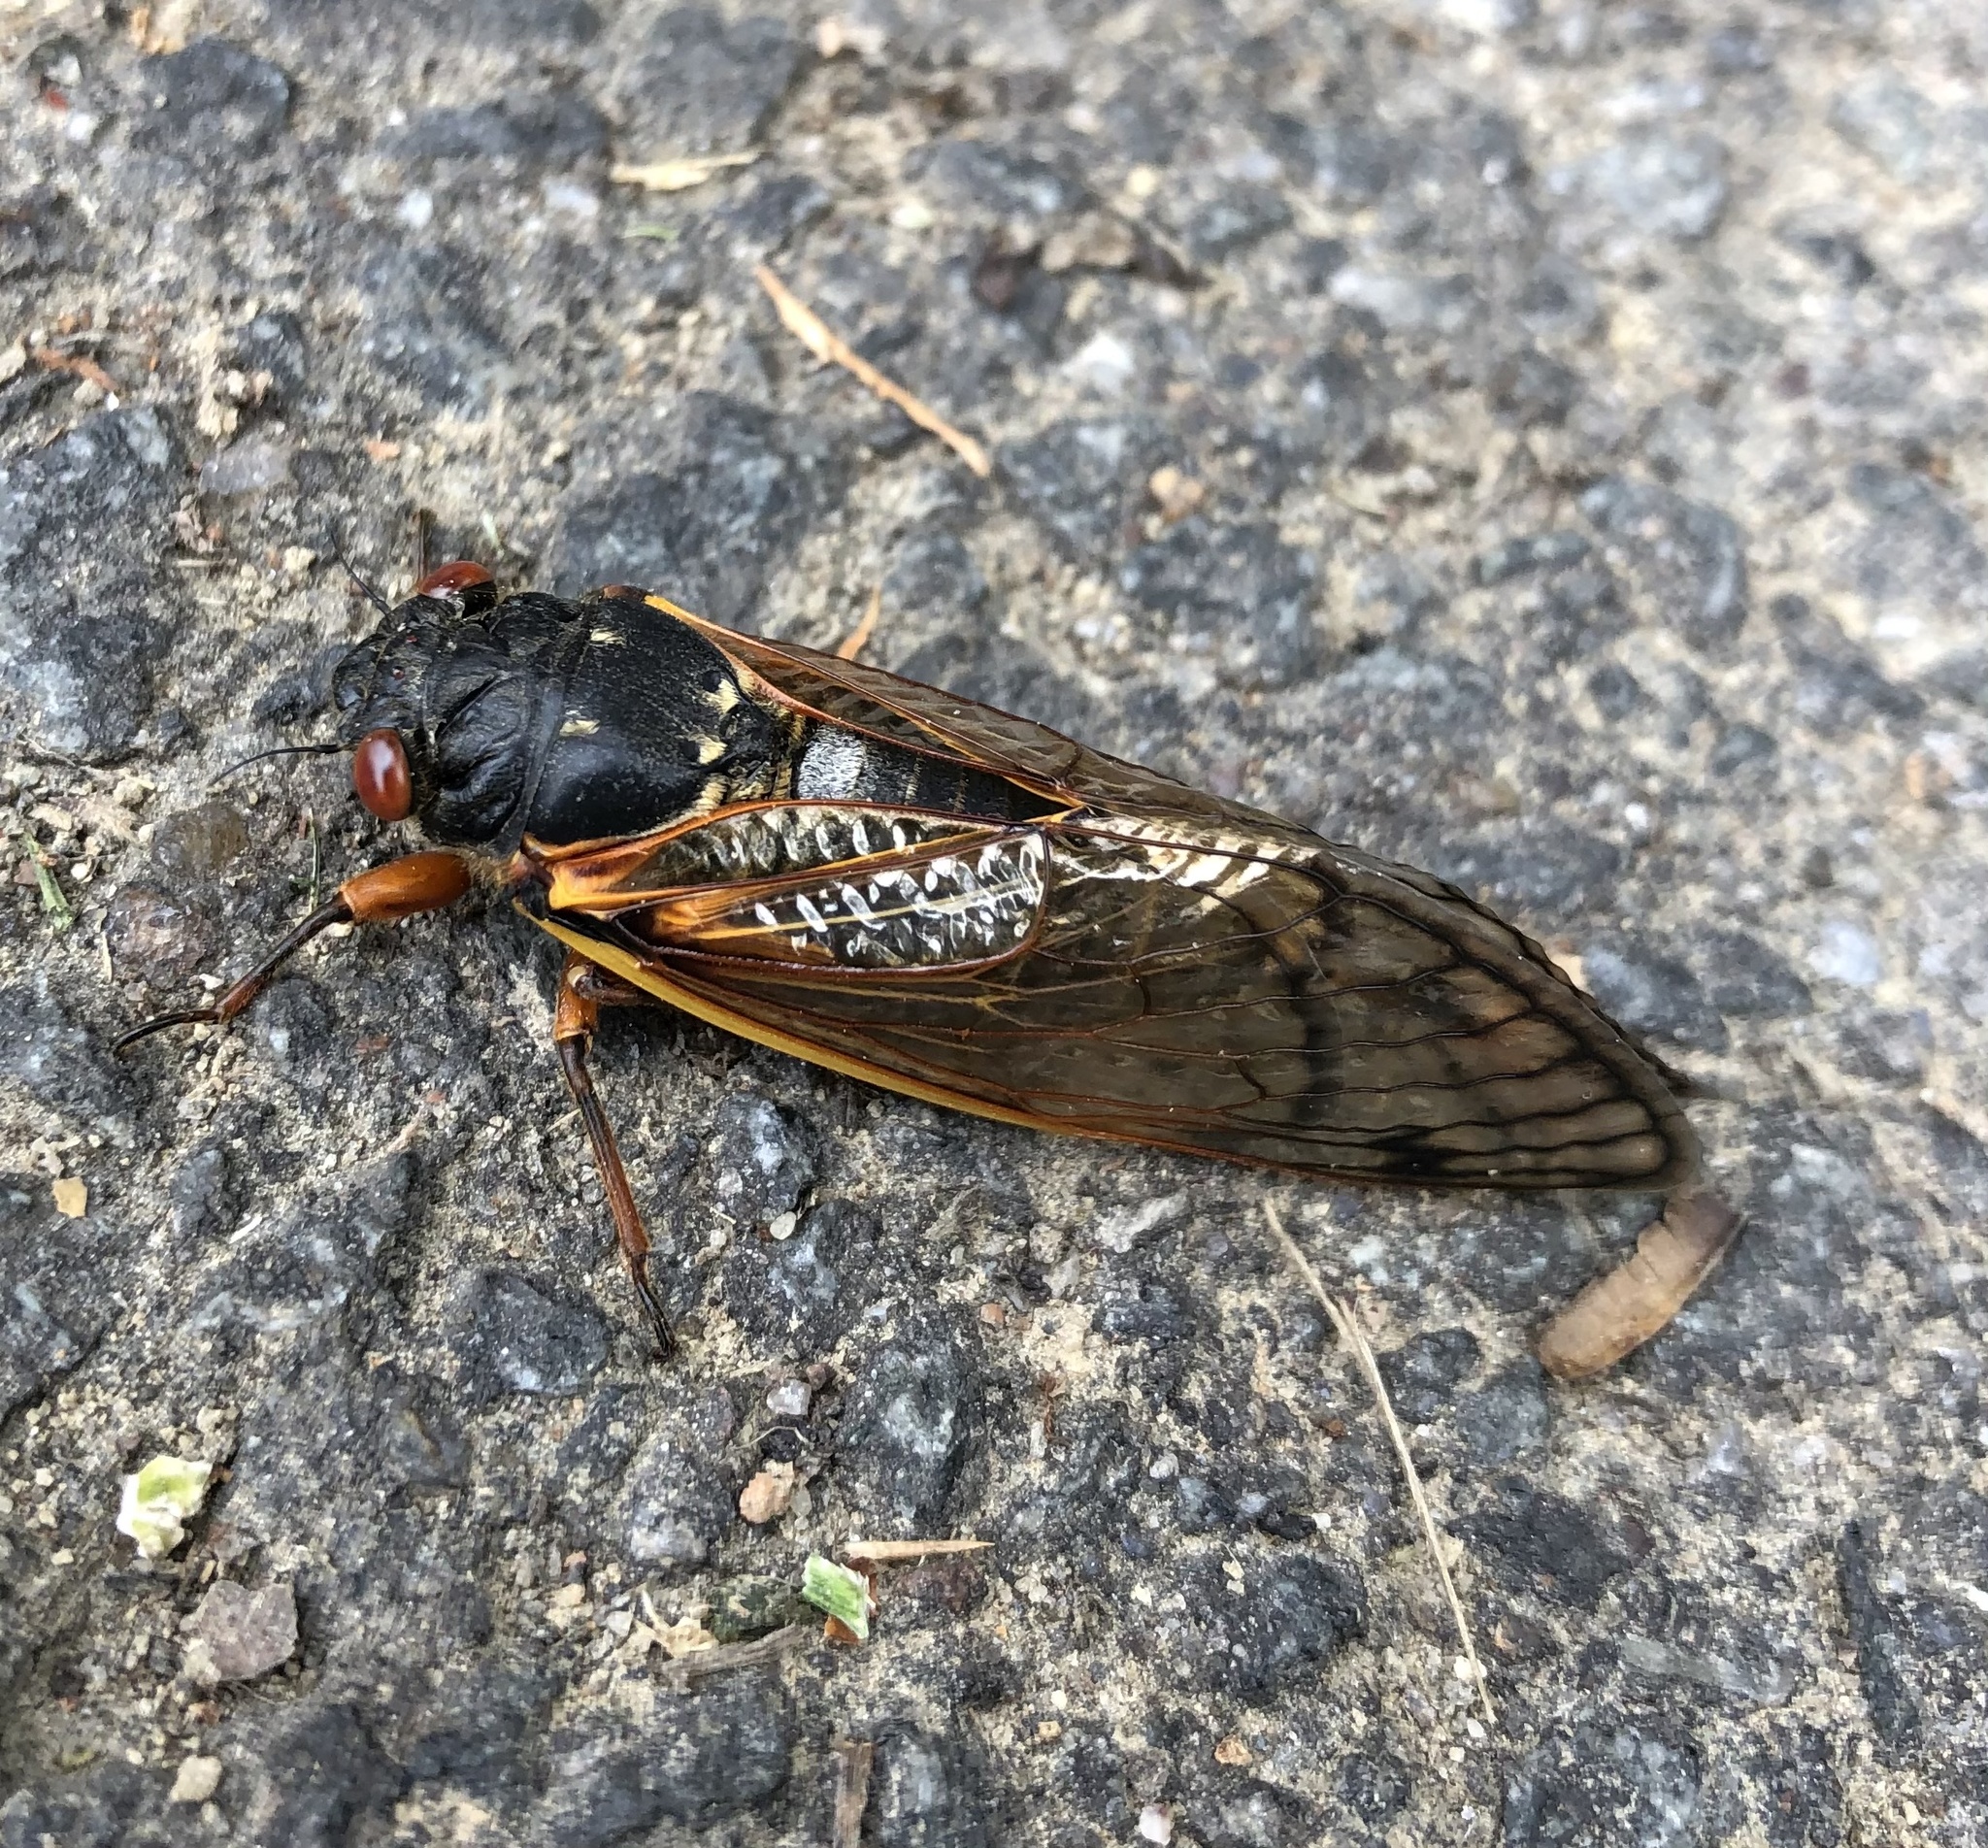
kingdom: Animalia
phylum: Arthropoda
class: Insecta
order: Hemiptera
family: Cicadidae
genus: Magicicada
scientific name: Magicicada
